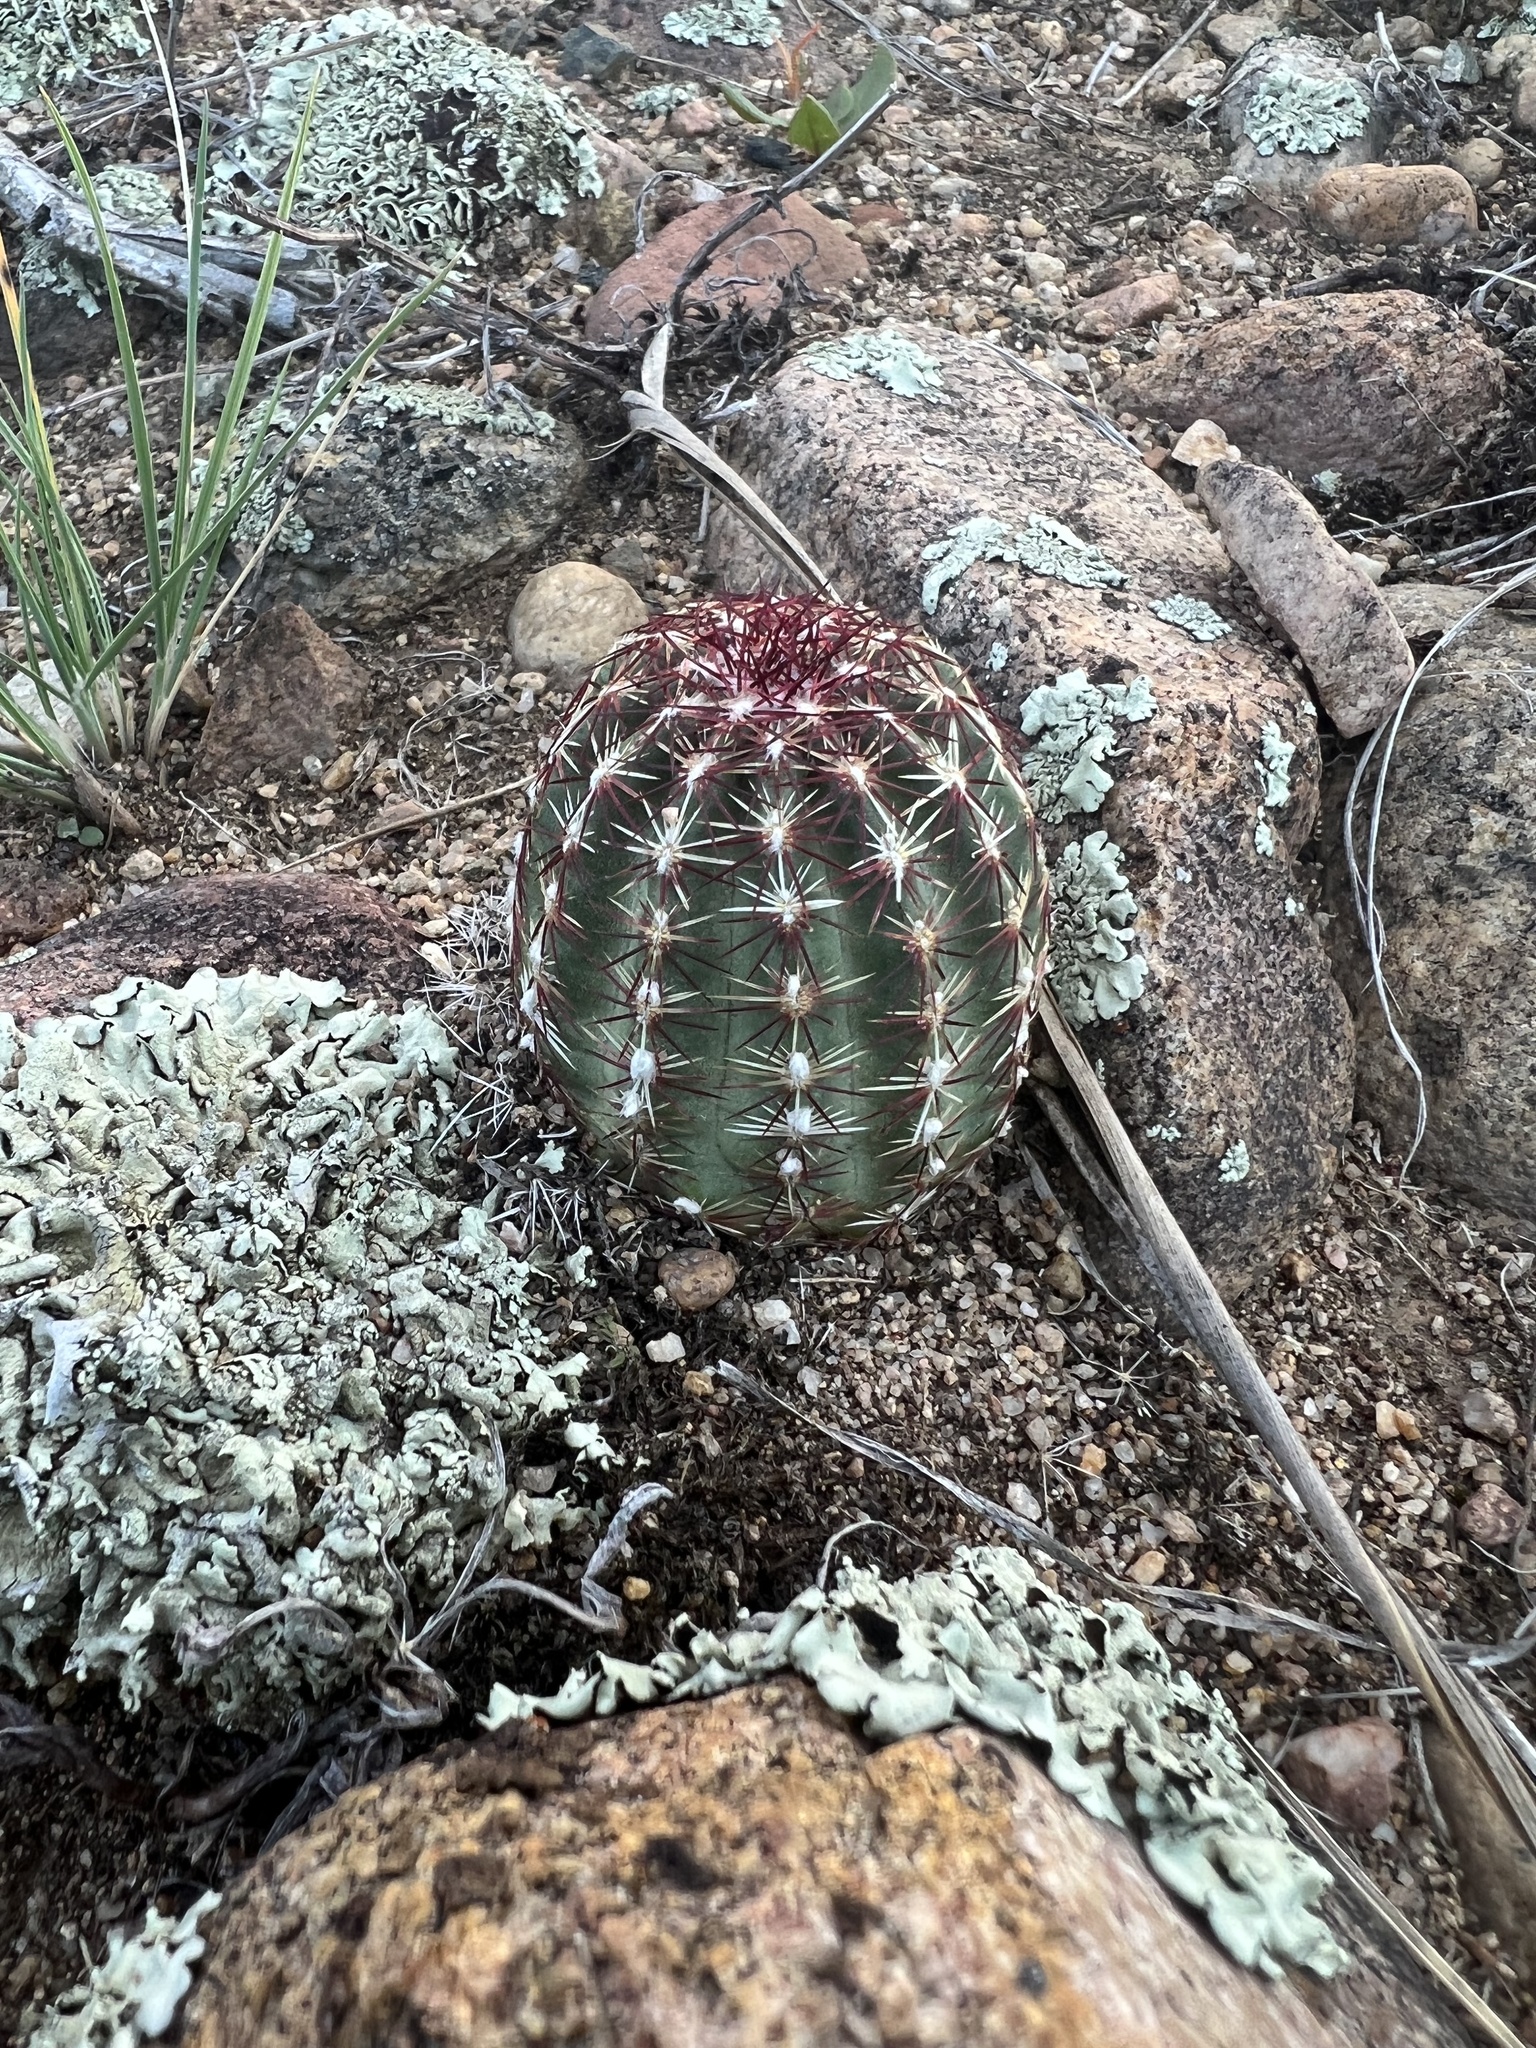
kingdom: Plantae
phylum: Tracheophyta
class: Magnoliopsida
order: Caryophyllales
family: Cactaceae
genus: Echinocereus
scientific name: Echinocereus viridiflorus
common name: Nylon hedgehog cactus
